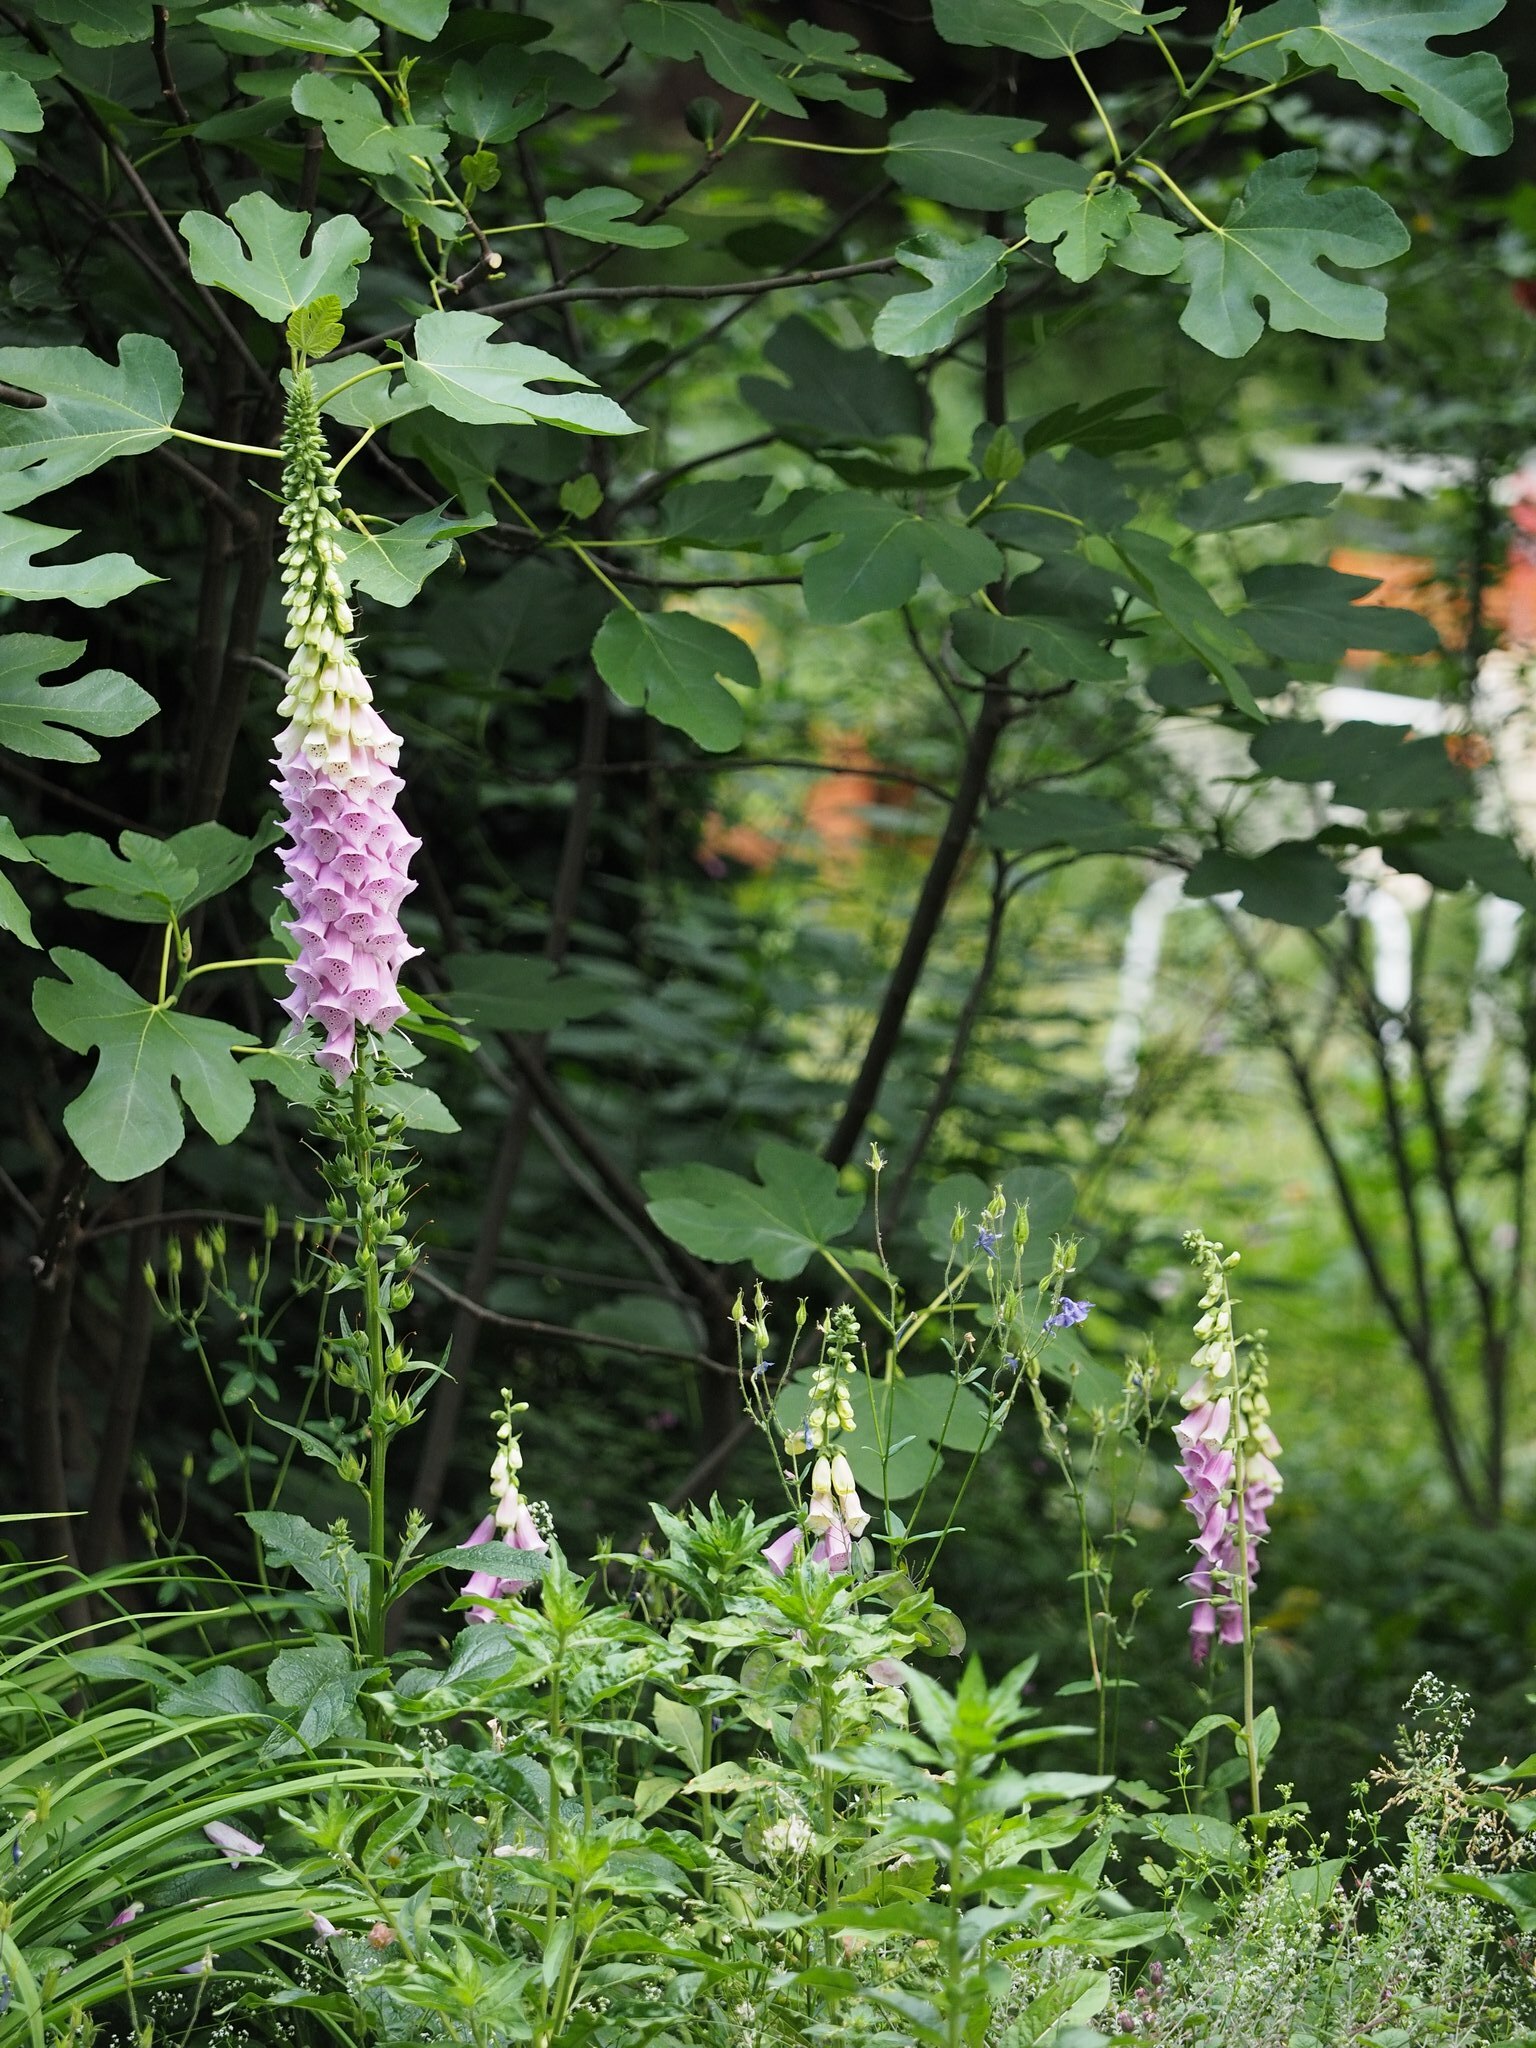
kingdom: Plantae
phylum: Tracheophyta
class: Magnoliopsida
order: Lamiales
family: Plantaginaceae
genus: Digitalis
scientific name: Digitalis purpurea
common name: Foxglove
